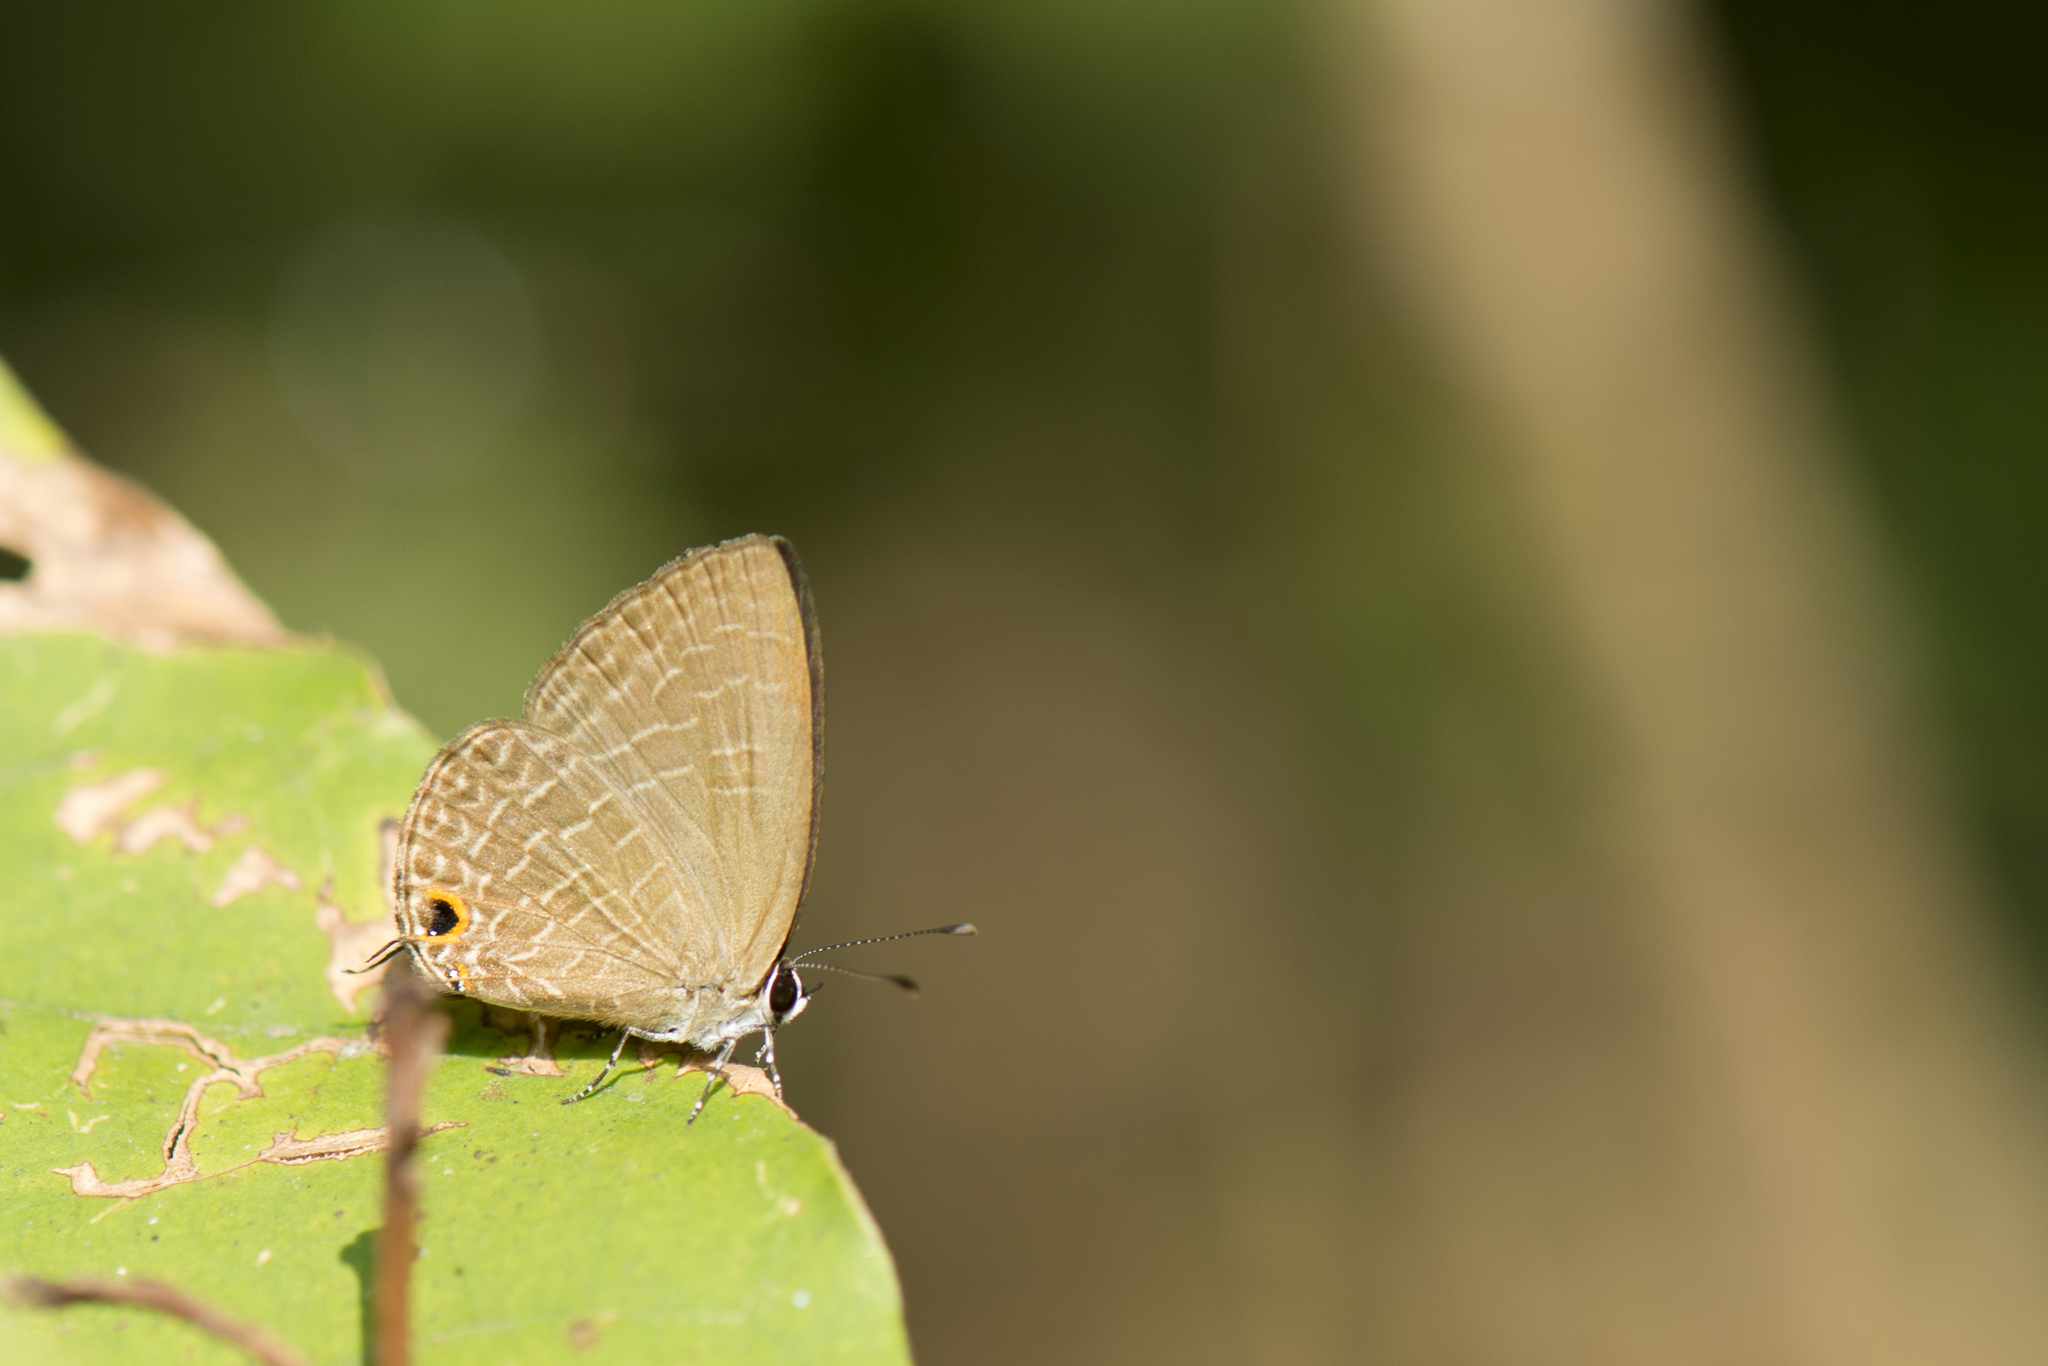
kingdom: Animalia
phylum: Arthropoda
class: Insecta
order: Lepidoptera
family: Lycaenidae
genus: Jamides
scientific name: Jamides bochus
